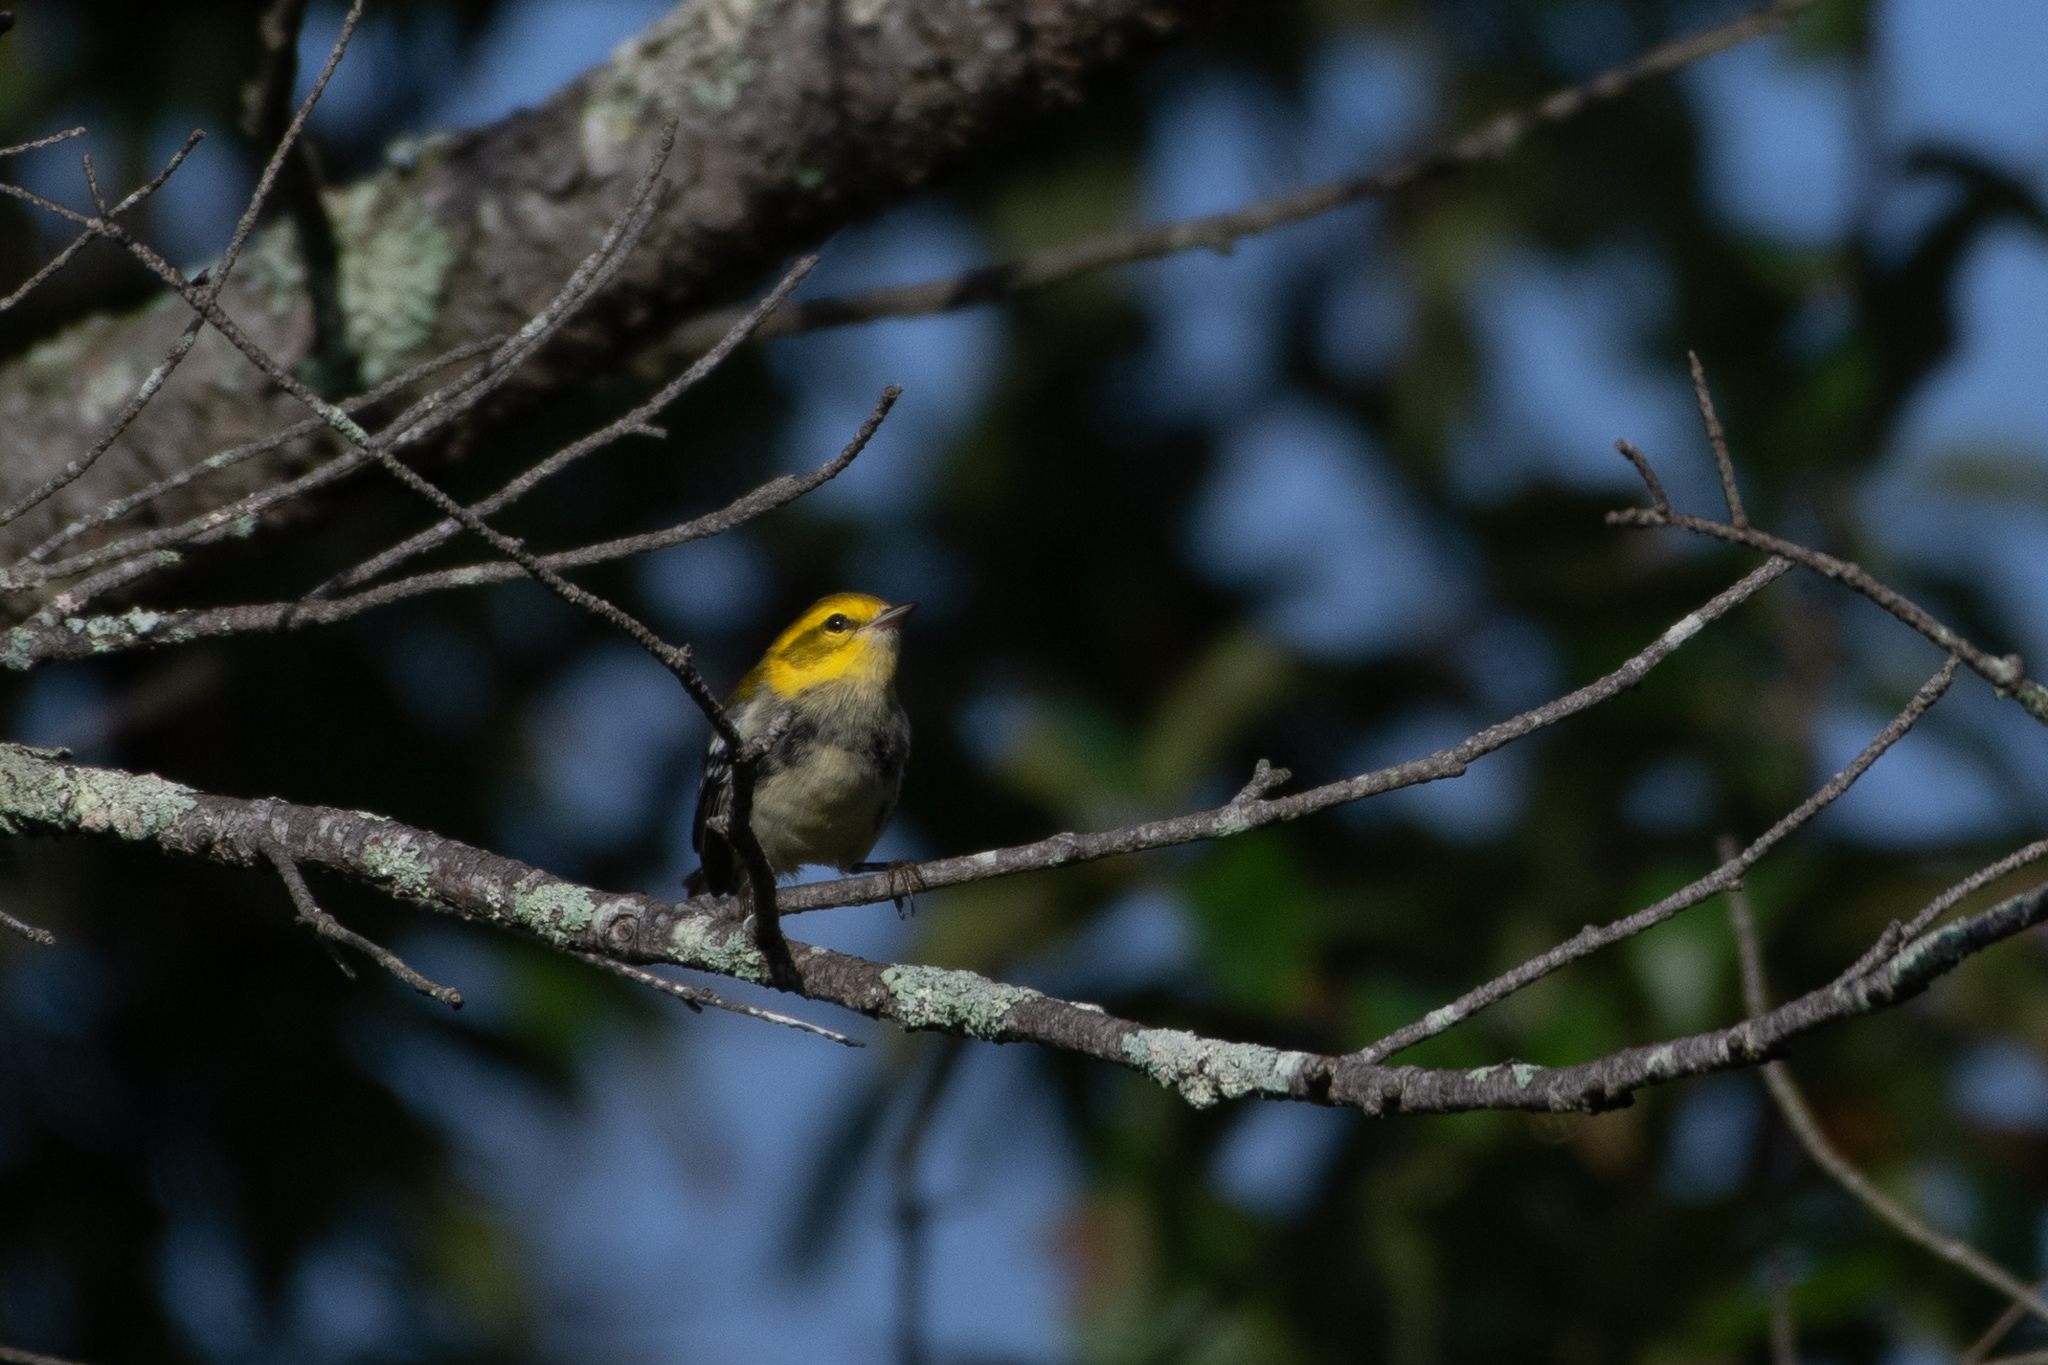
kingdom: Animalia
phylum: Chordata
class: Aves
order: Passeriformes
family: Parulidae
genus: Setophaga
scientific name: Setophaga virens
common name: Black-throated green warbler
